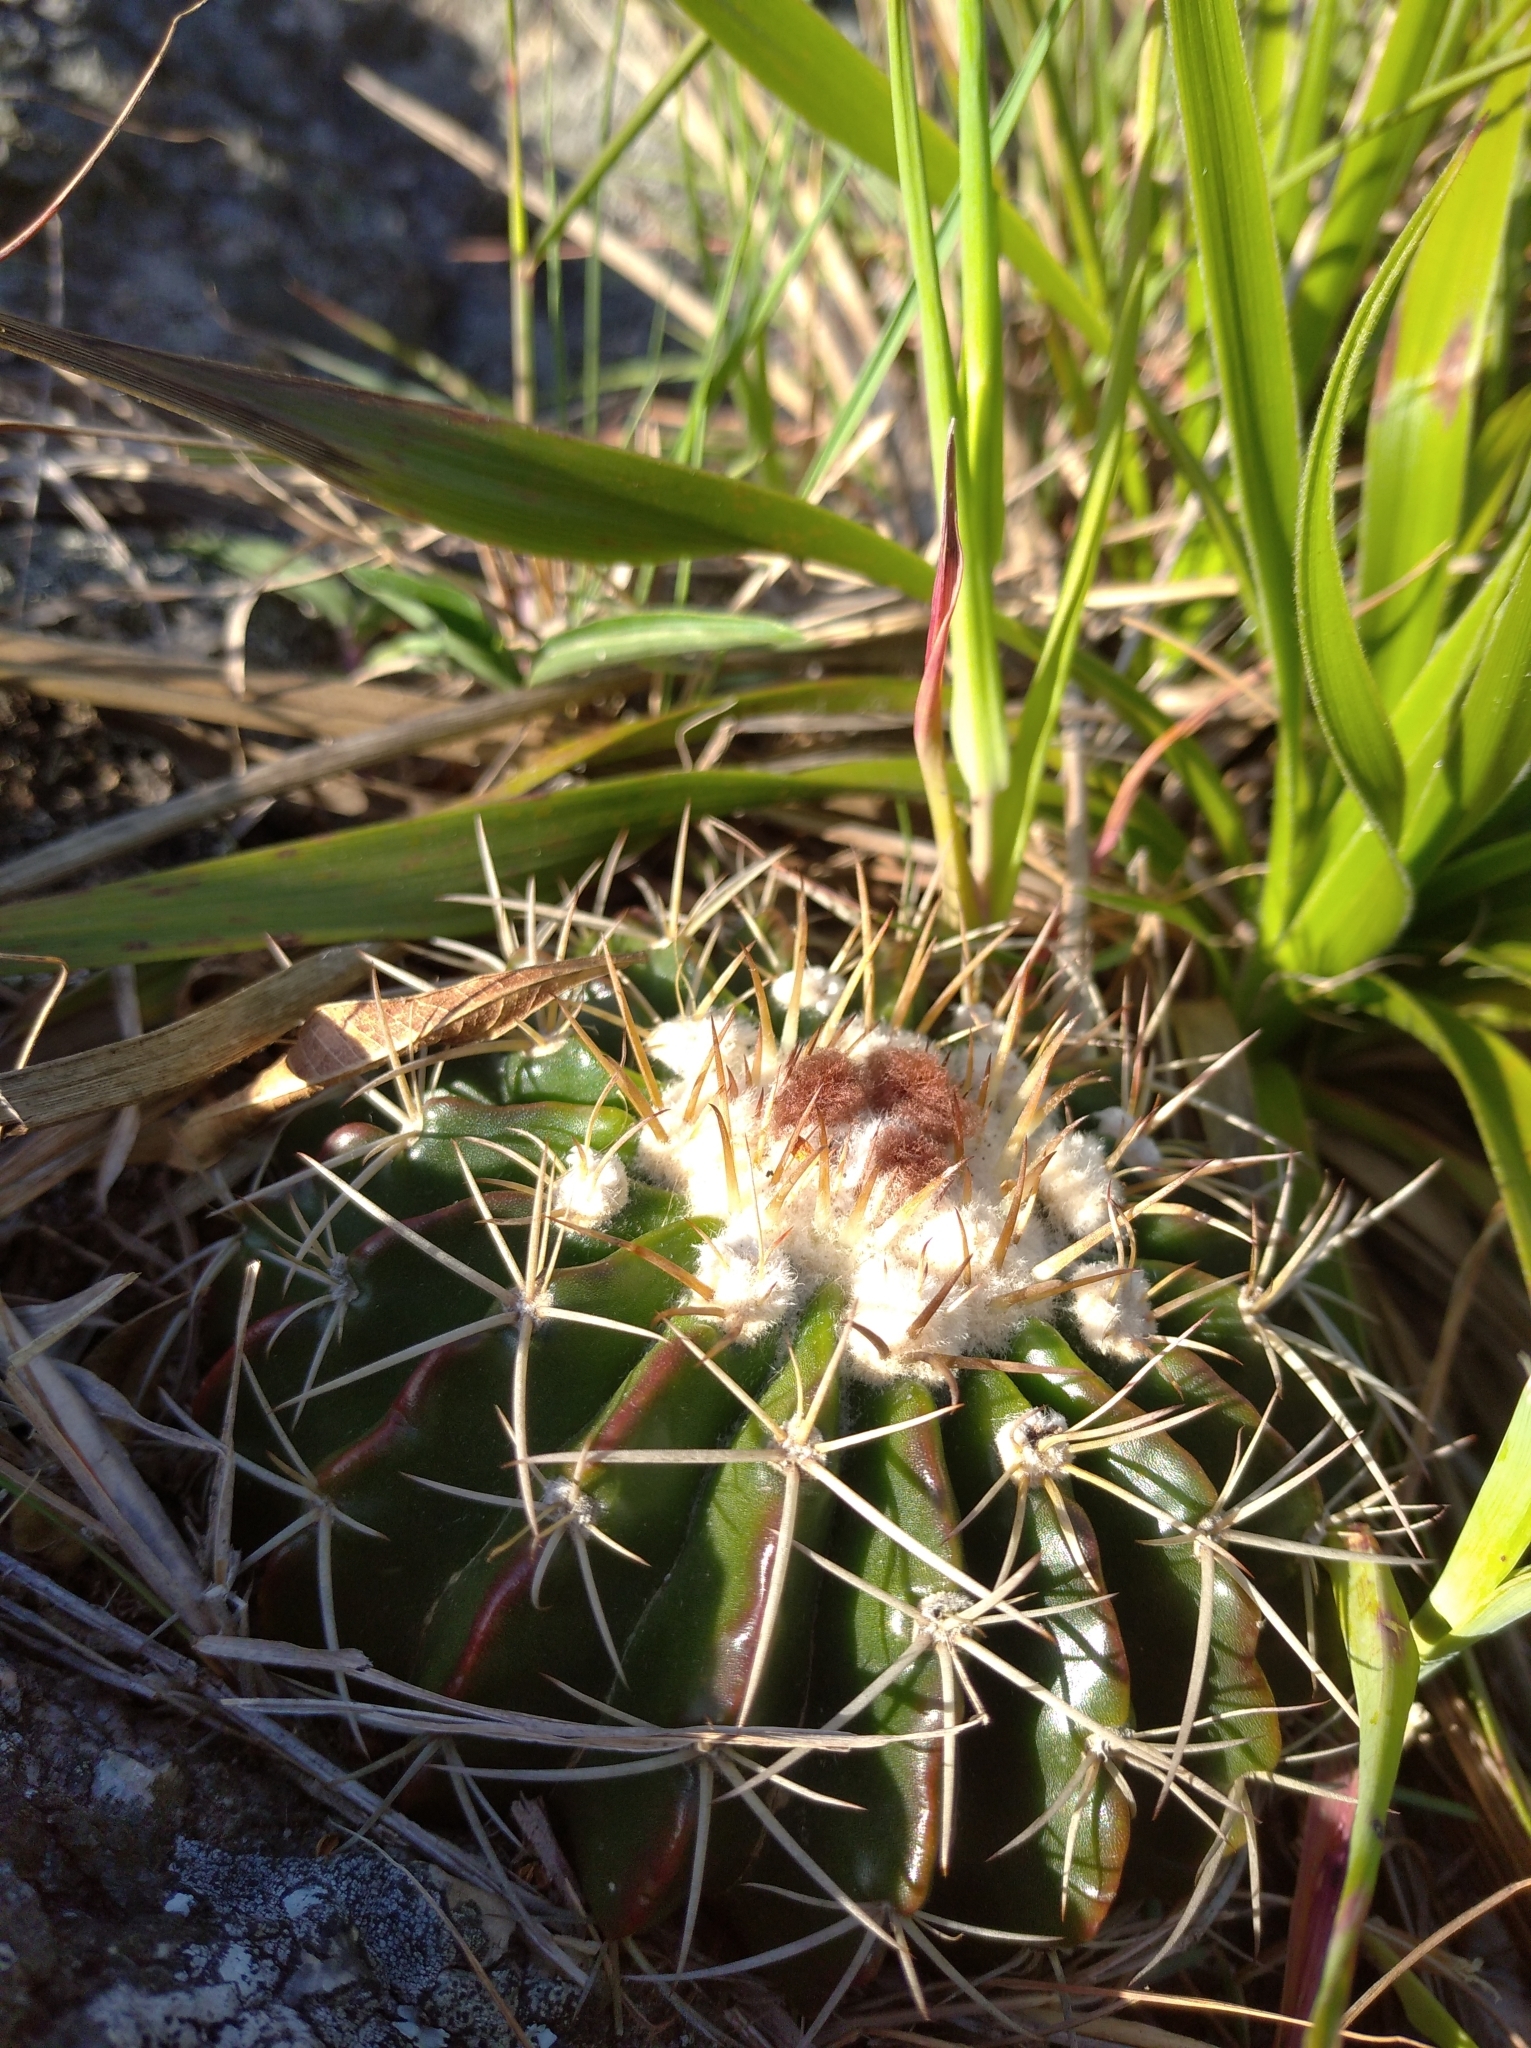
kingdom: Plantae
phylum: Tracheophyta
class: Magnoliopsida
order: Caryophyllales
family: Cactaceae
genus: Parodia
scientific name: Parodia erinacea
